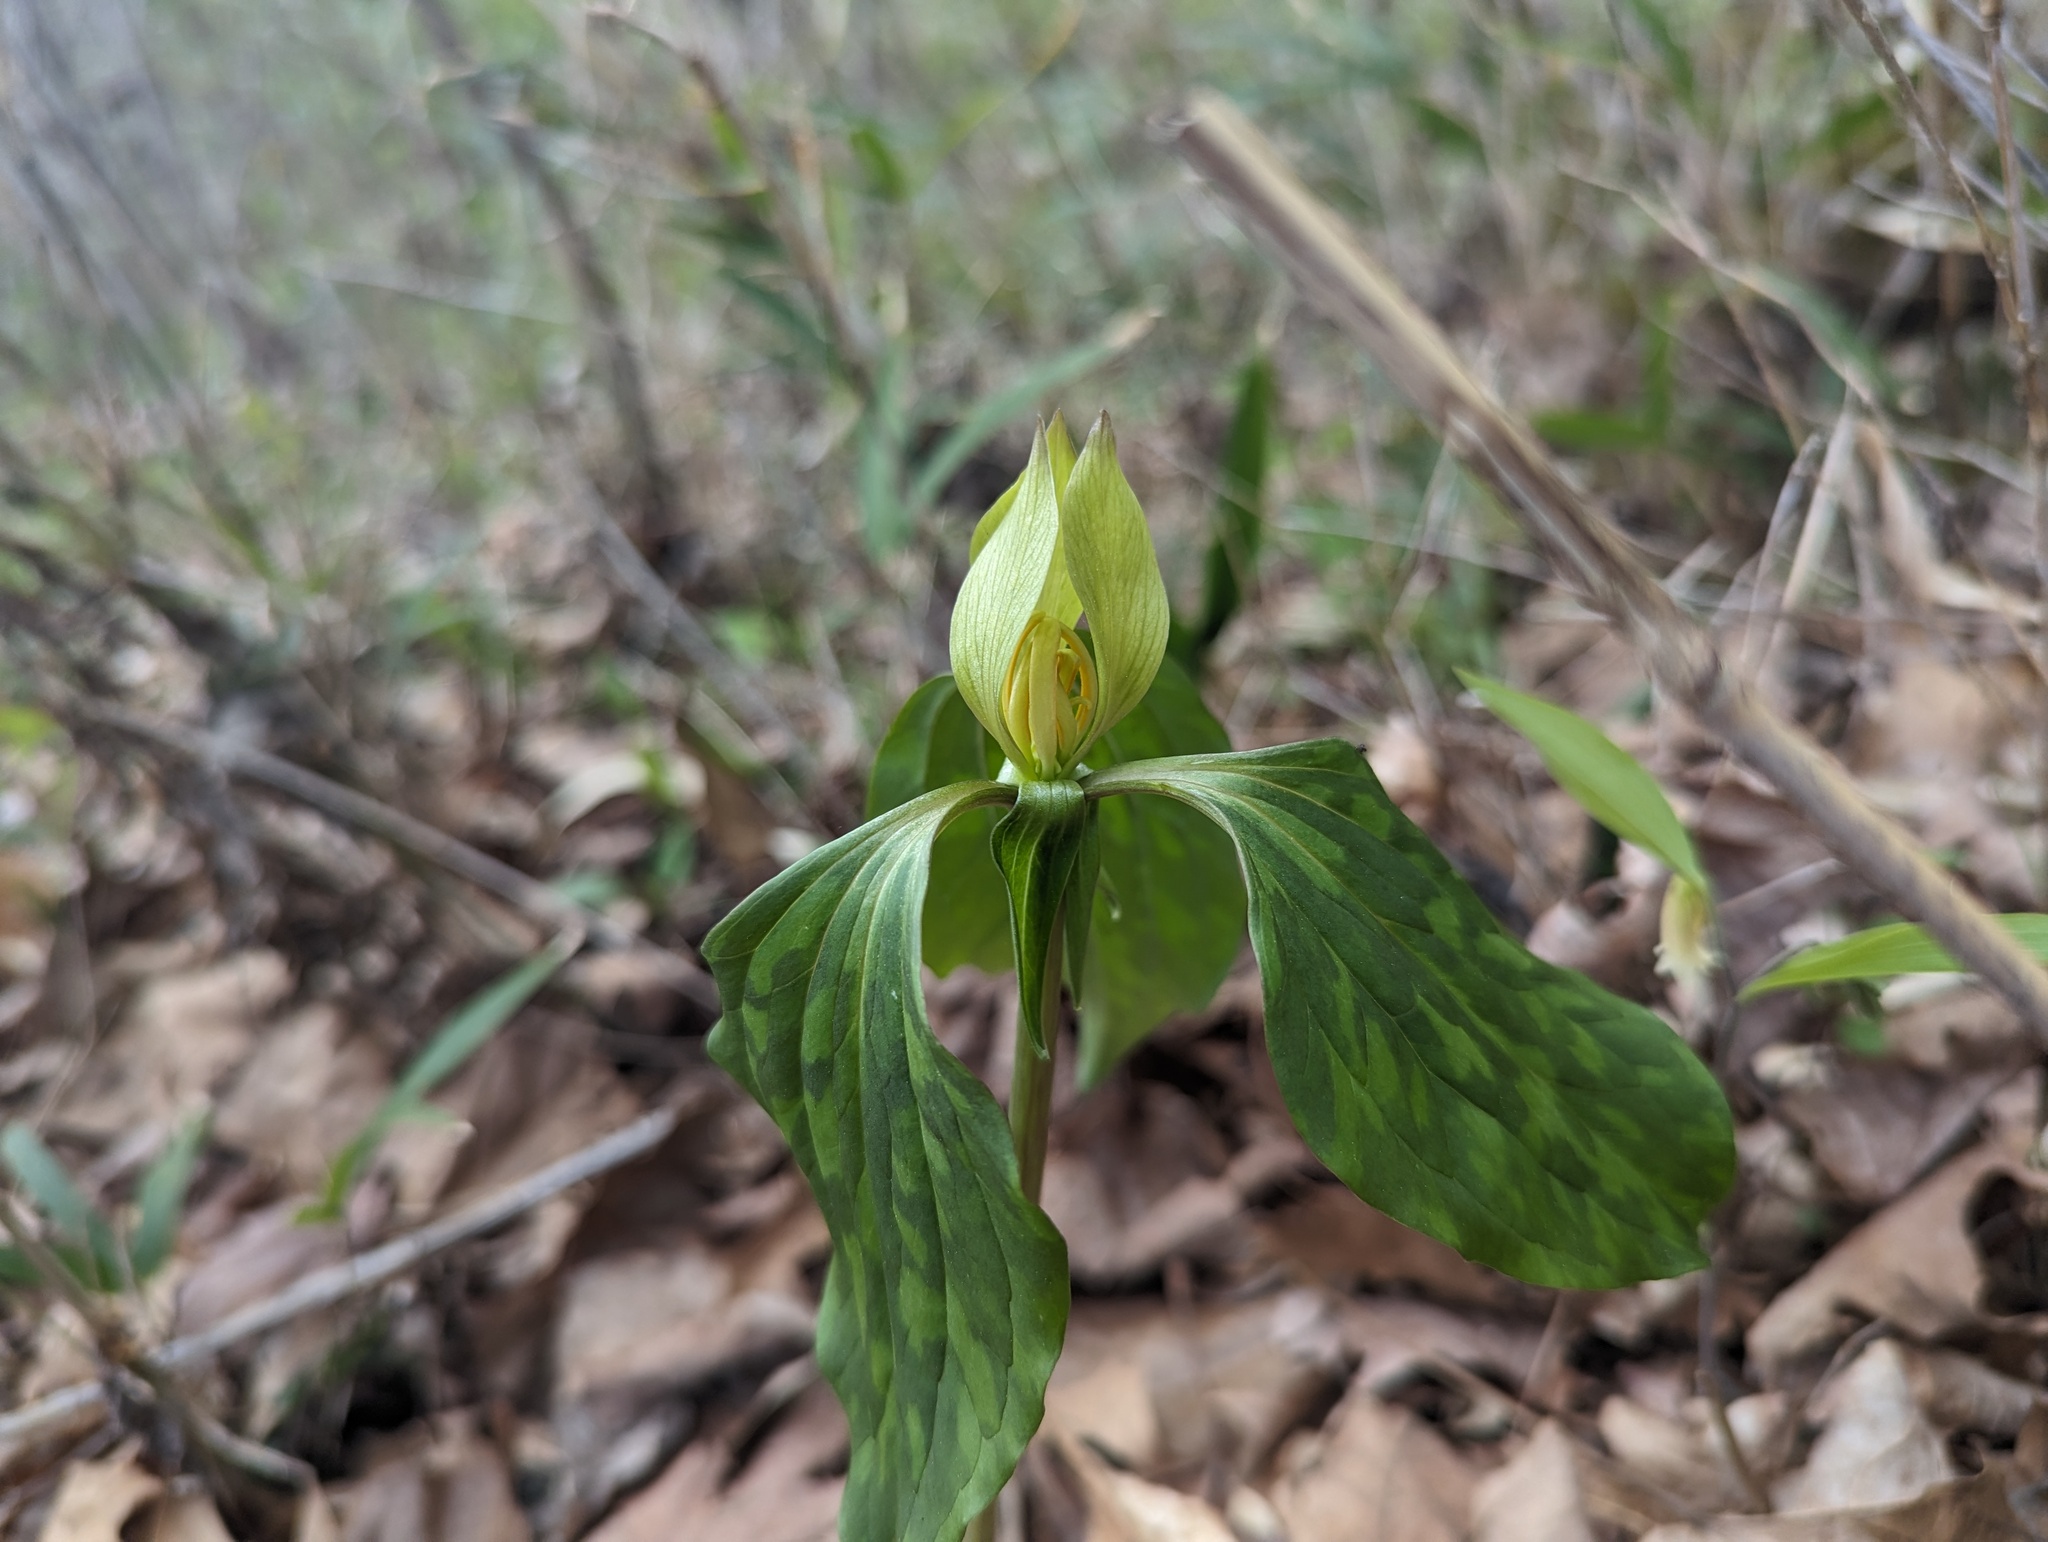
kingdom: Plantae
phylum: Tracheophyta
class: Liliopsida
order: Liliales
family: Melanthiaceae
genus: Trillium
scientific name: Trillium recurvatum
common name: Bloody butcher
